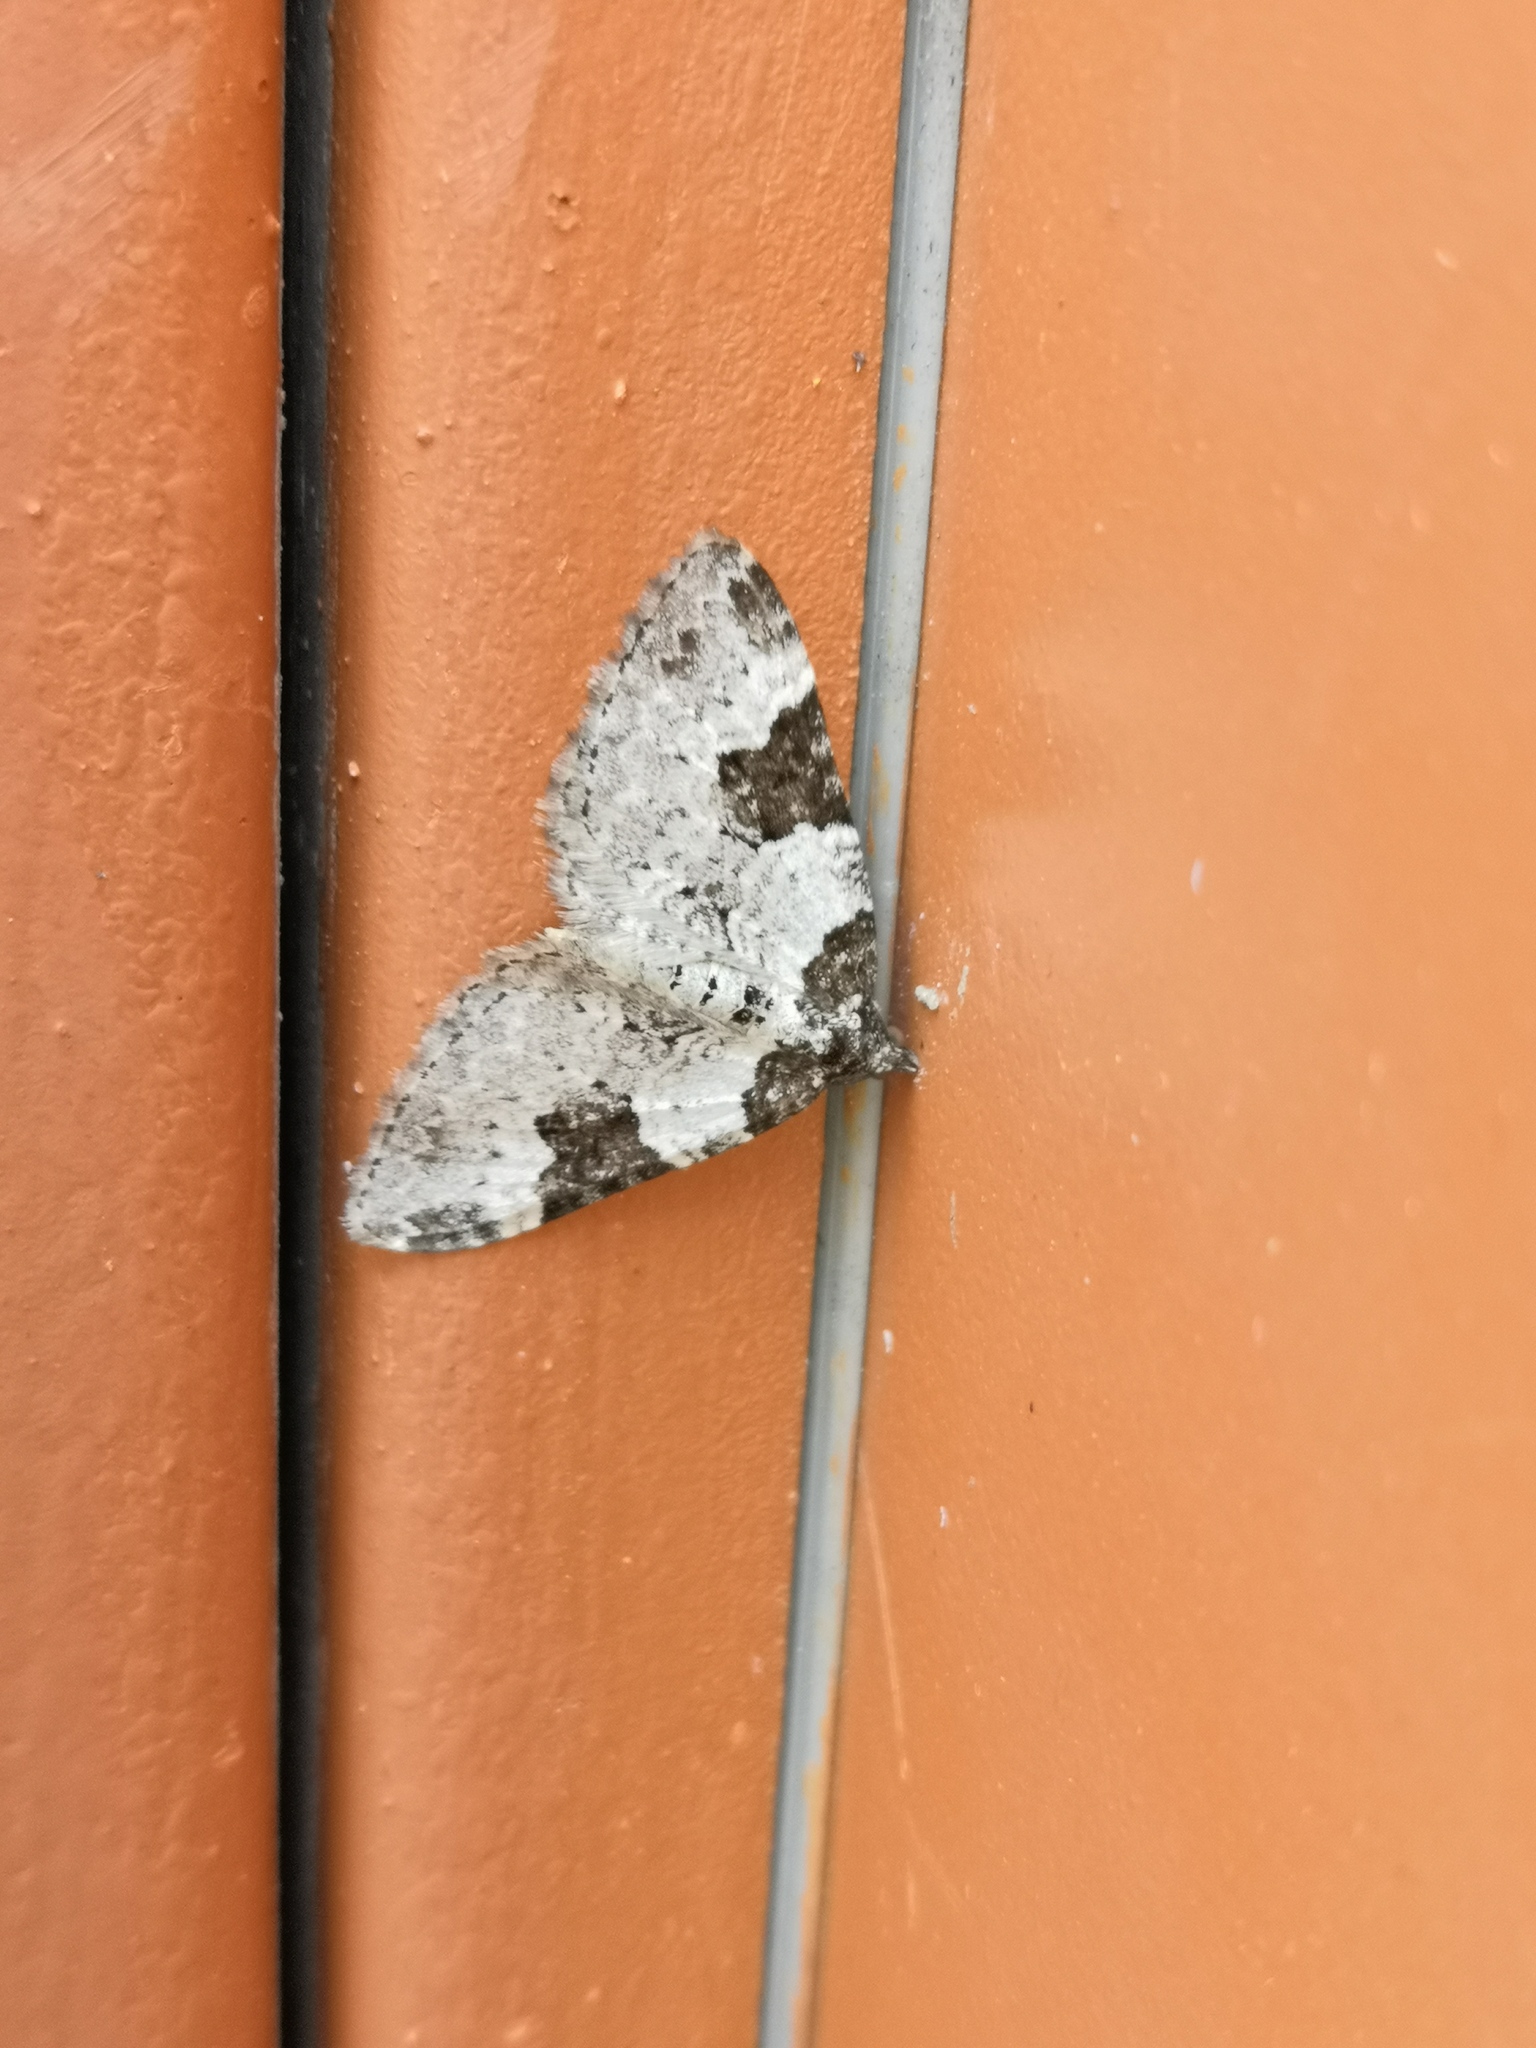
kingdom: Animalia
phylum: Arthropoda
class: Insecta
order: Lepidoptera
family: Geometridae
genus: Xanthorhoe
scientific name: Xanthorhoe fluctuata
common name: Garden carpet
